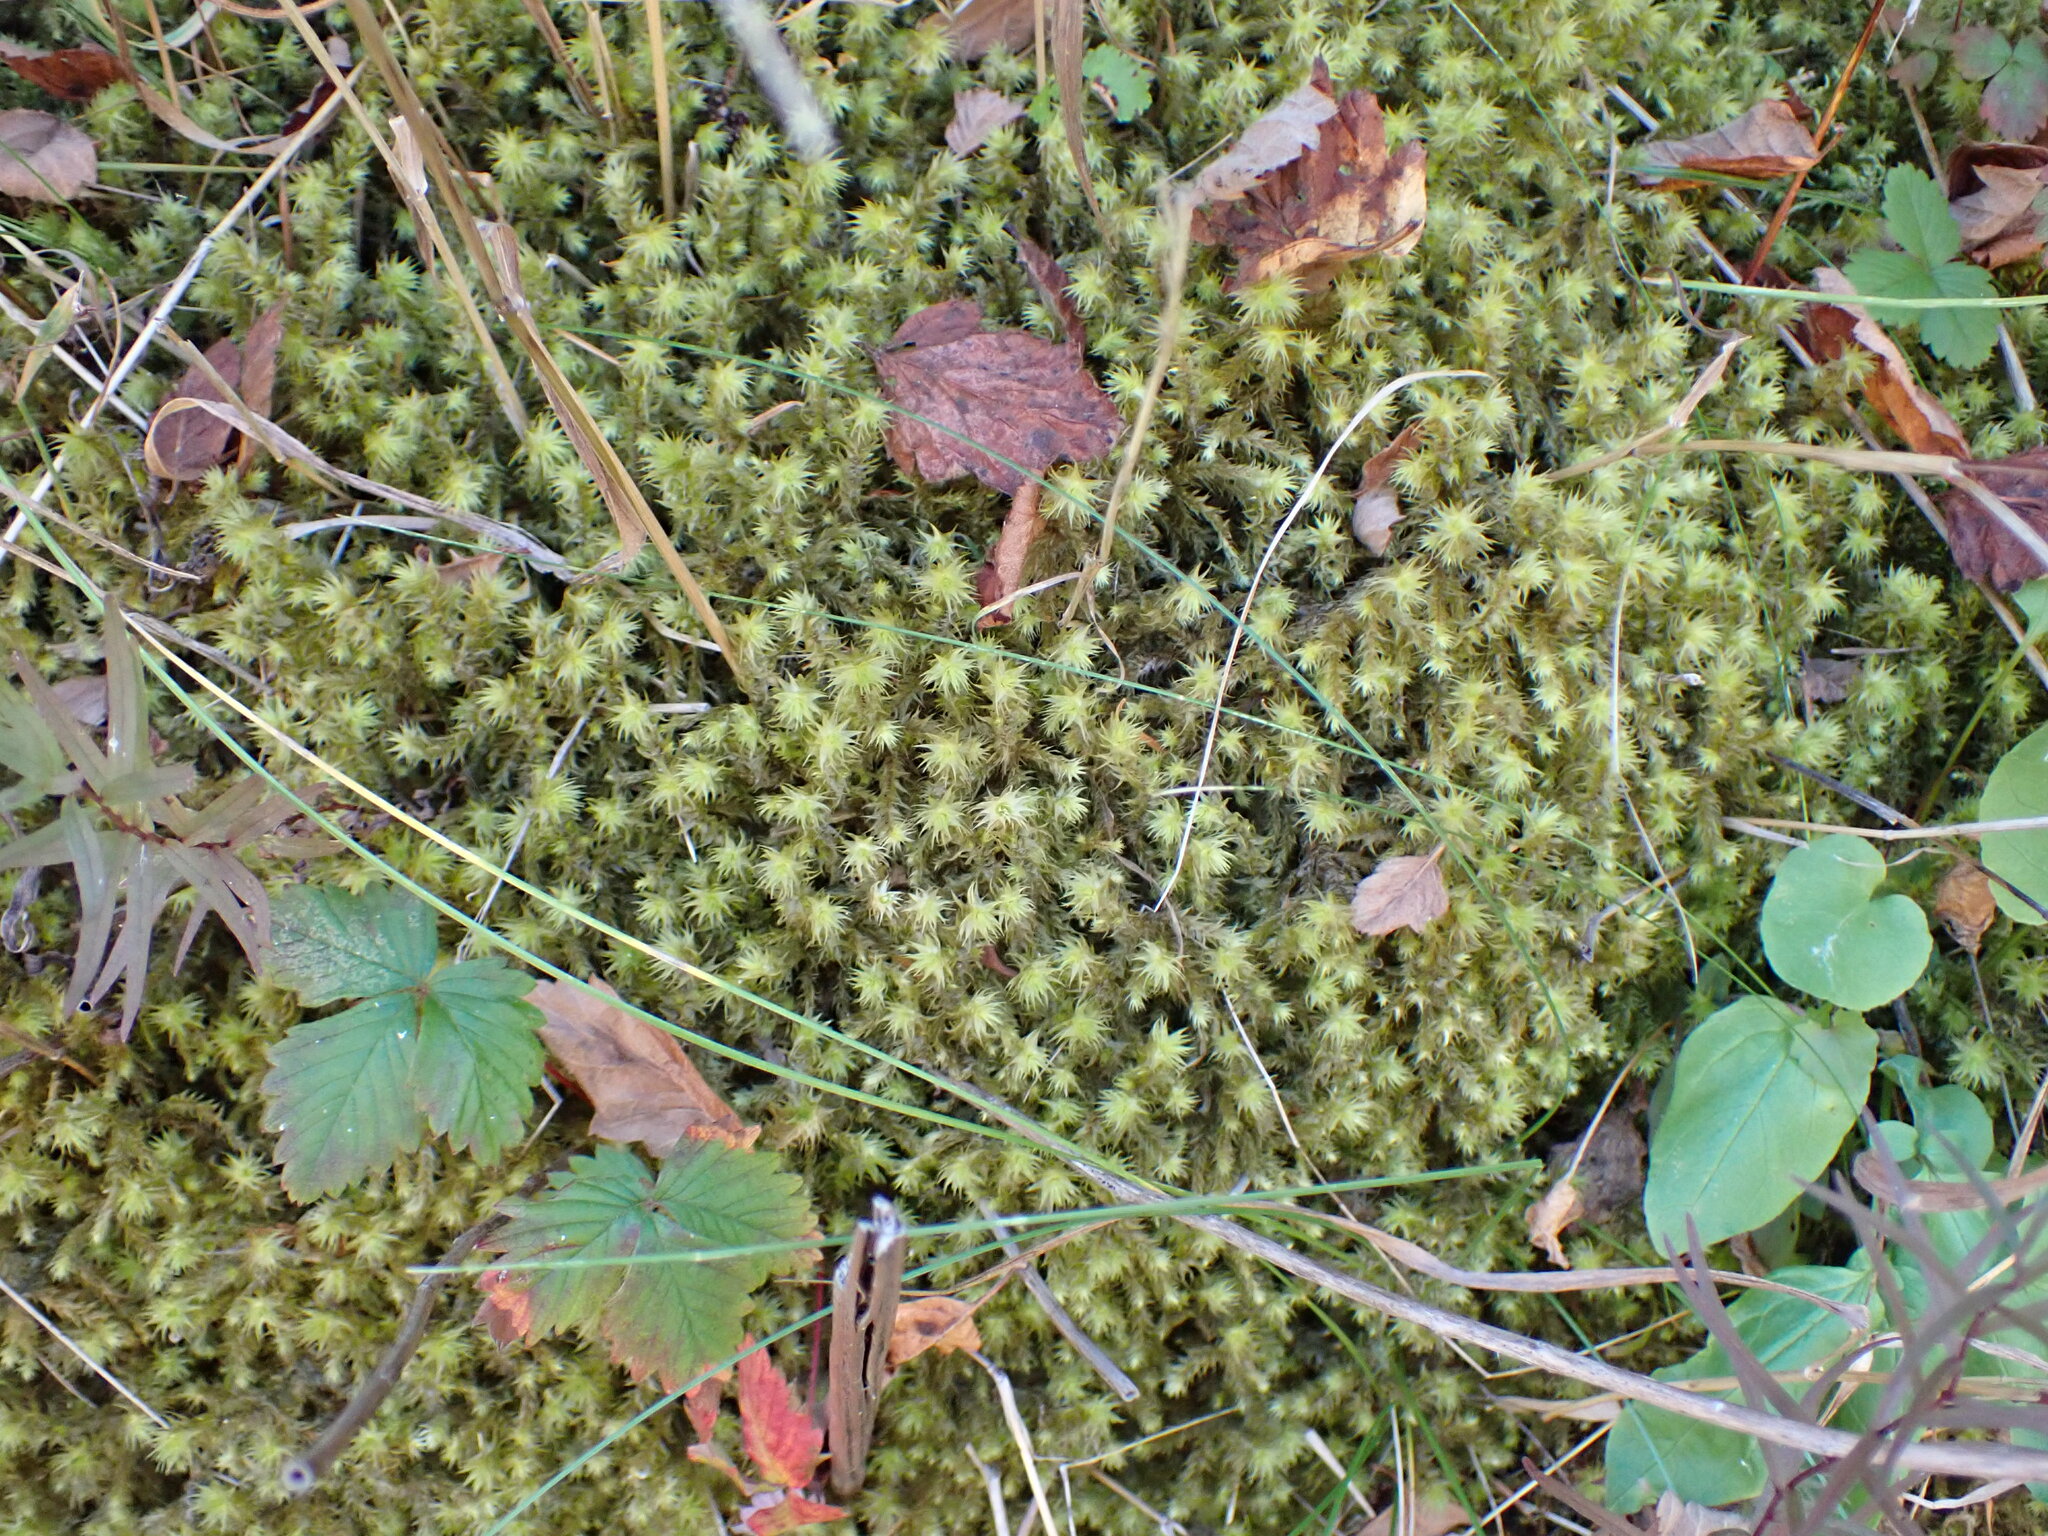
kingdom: Plantae
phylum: Bryophyta
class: Bryopsida
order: Hypnales
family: Hylocomiaceae
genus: Hylocomiadelphus
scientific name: Hylocomiadelphus triquetrus
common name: Rough goose neck moss
